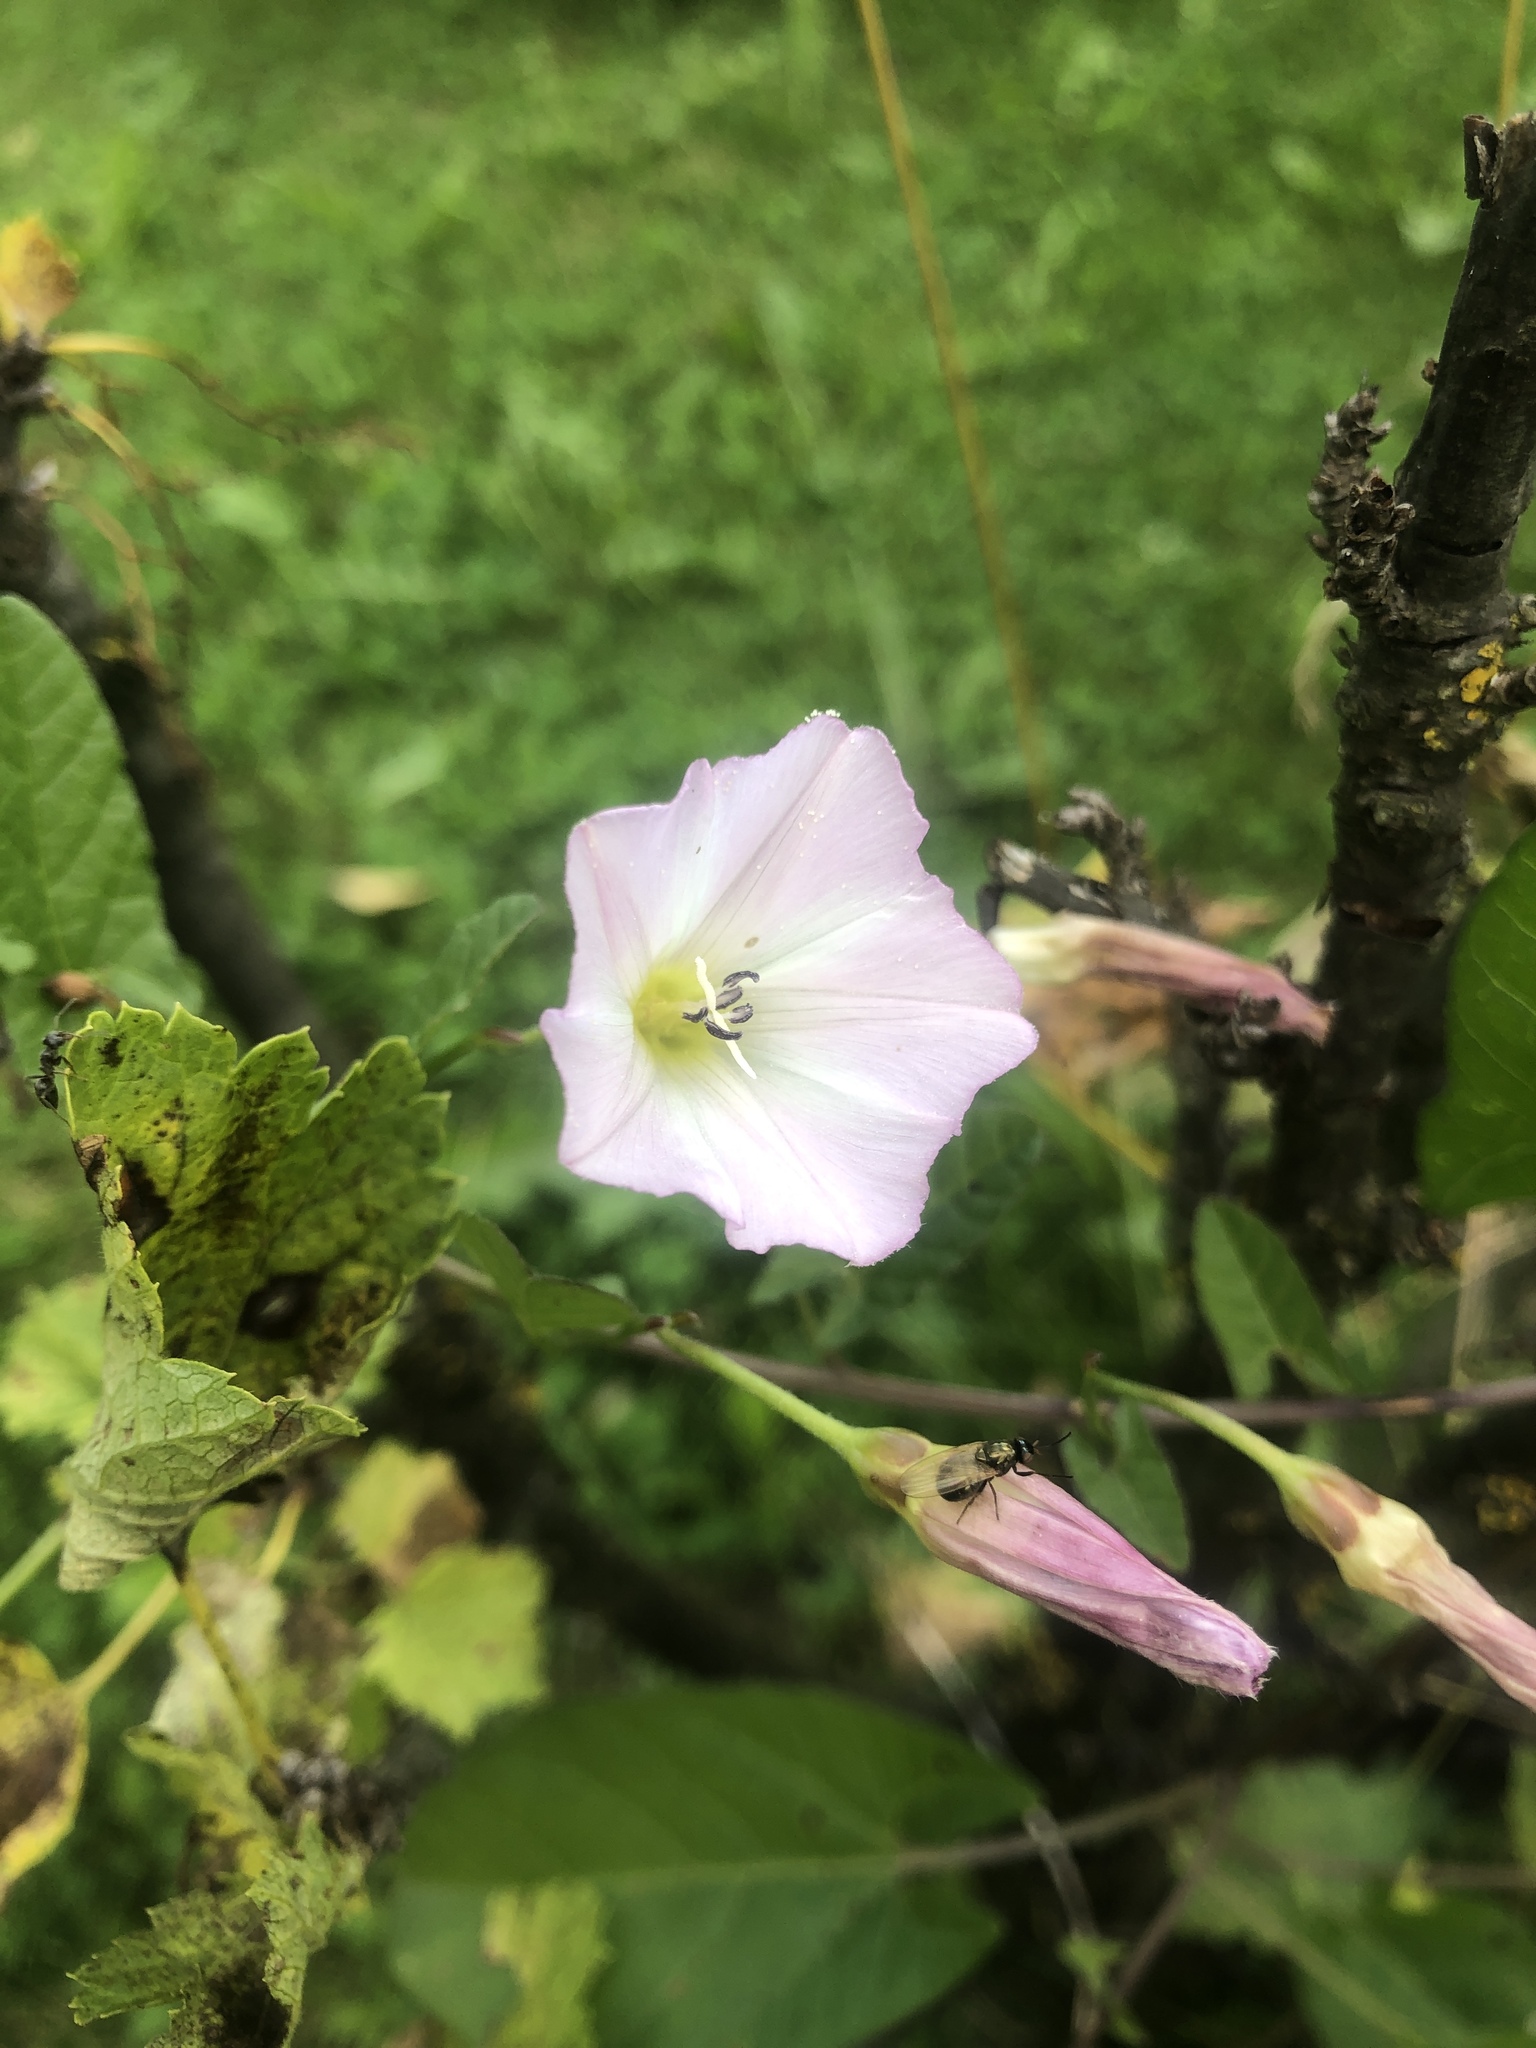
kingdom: Plantae
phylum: Tracheophyta
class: Magnoliopsida
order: Solanales
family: Convolvulaceae
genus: Convolvulus
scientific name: Convolvulus arvensis
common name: Field bindweed
